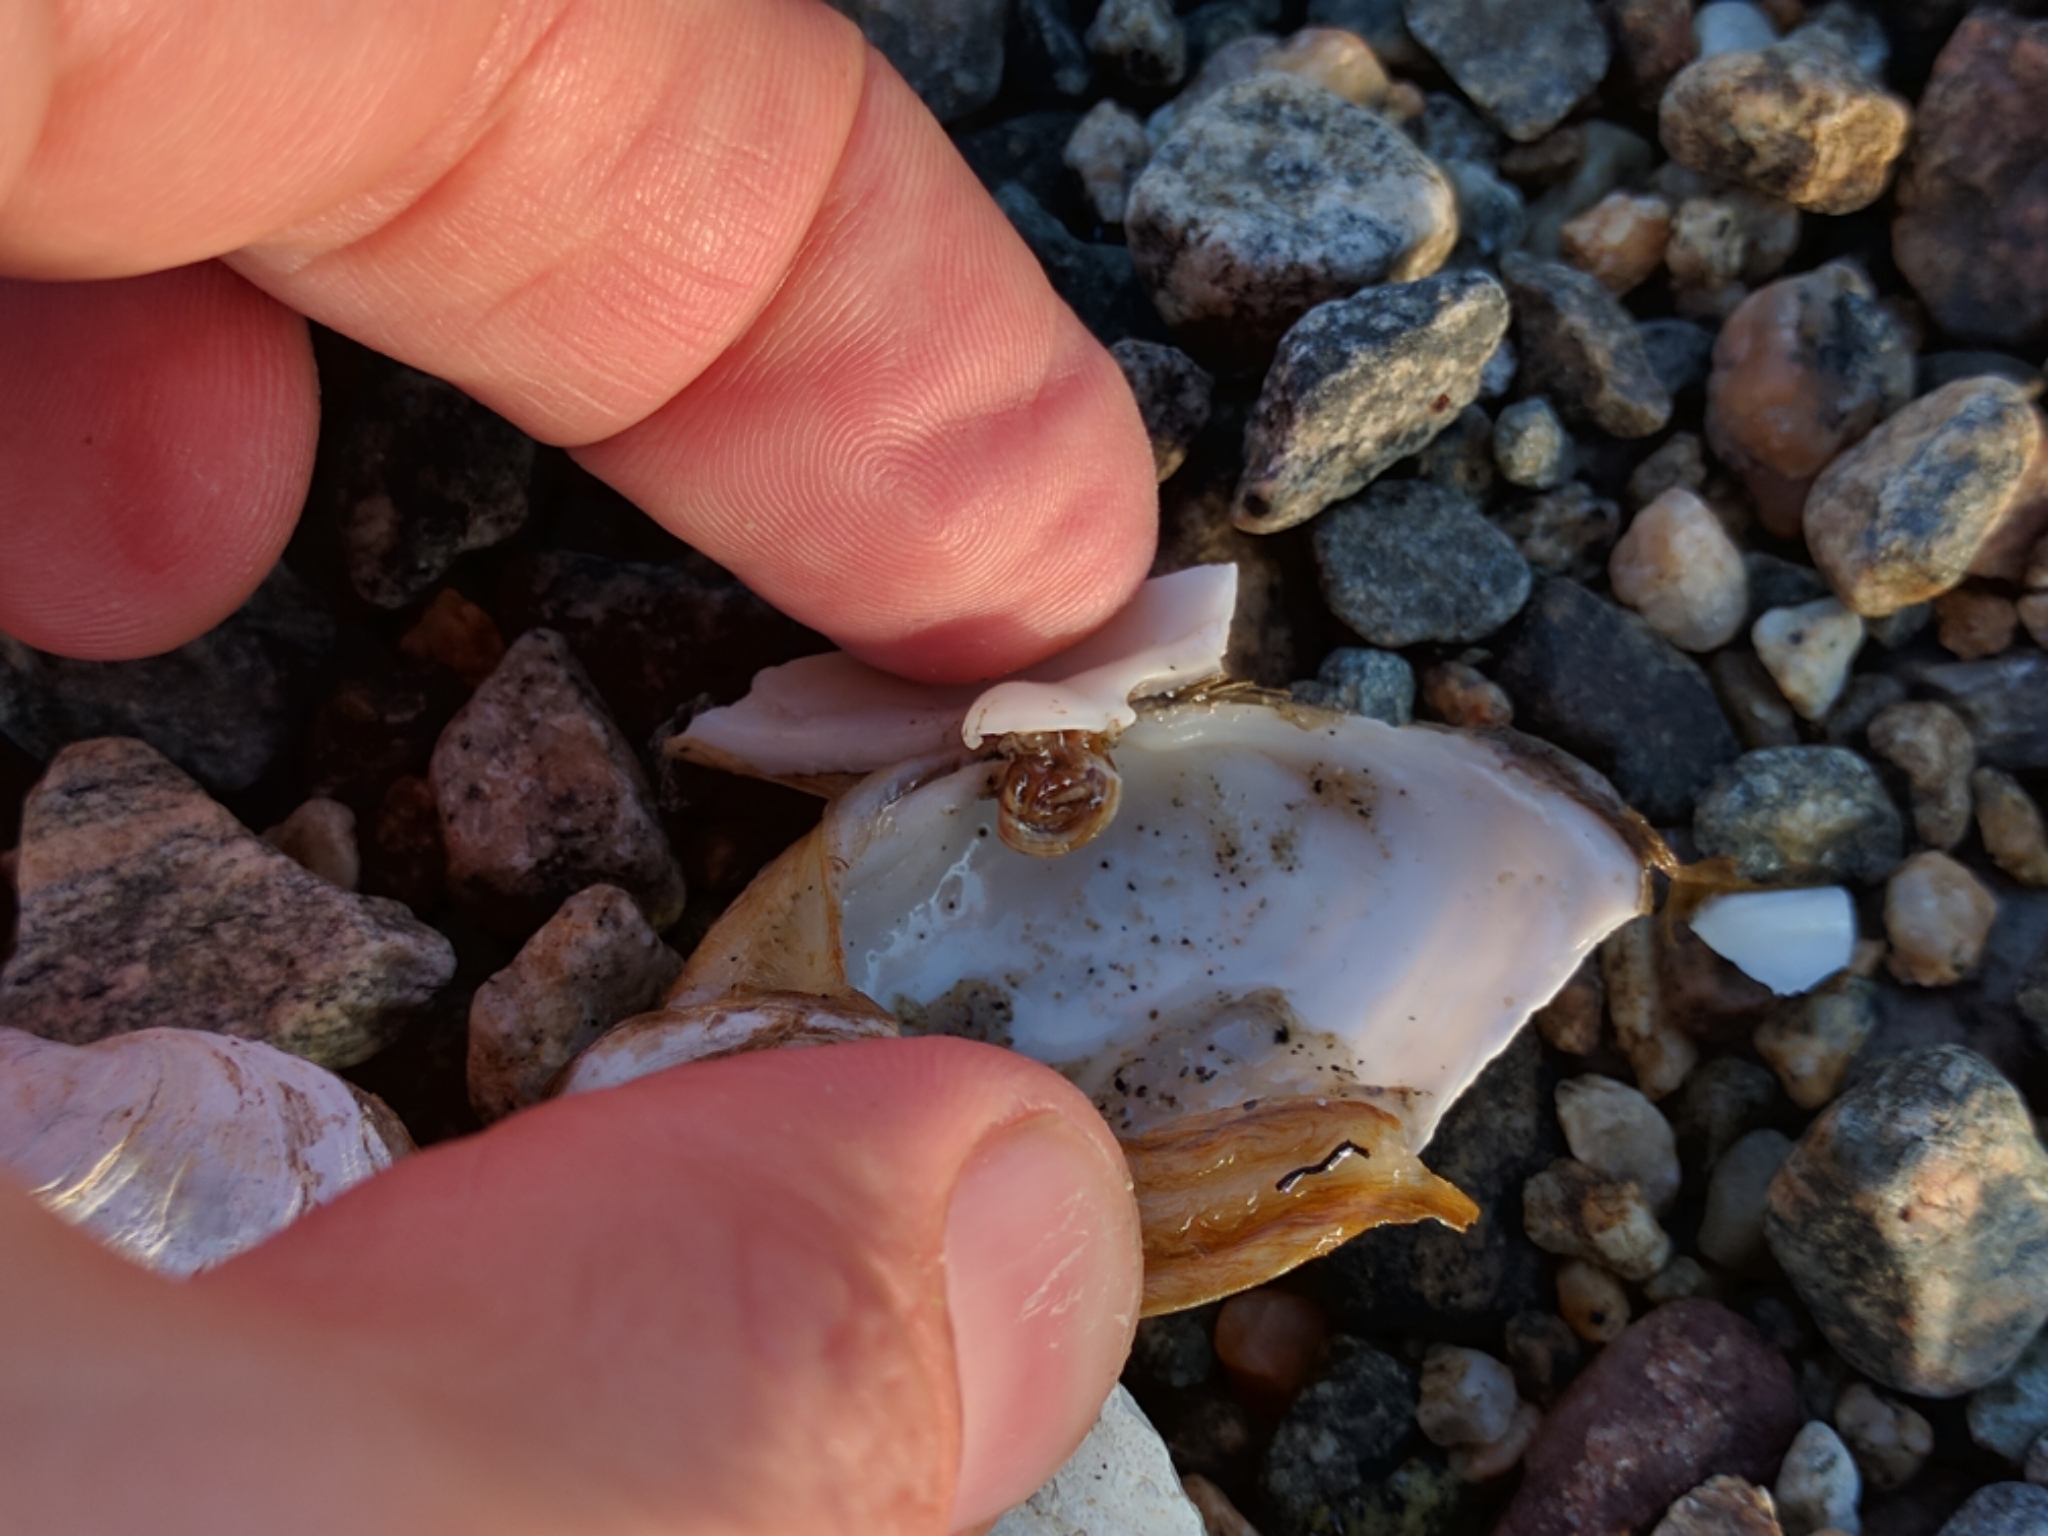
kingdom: Animalia
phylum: Mollusca
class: Bivalvia
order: Myida
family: Myidae
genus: Mya
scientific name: Mya arenaria
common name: Soft-shelled clam
